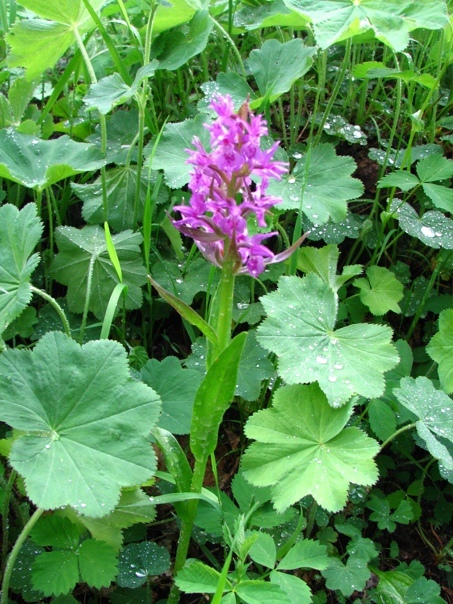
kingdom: Plantae
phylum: Tracheophyta
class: Liliopsida
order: Asparagales
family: Orchidaceae
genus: Dactylorhiza
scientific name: Dactylorhiza euxina
